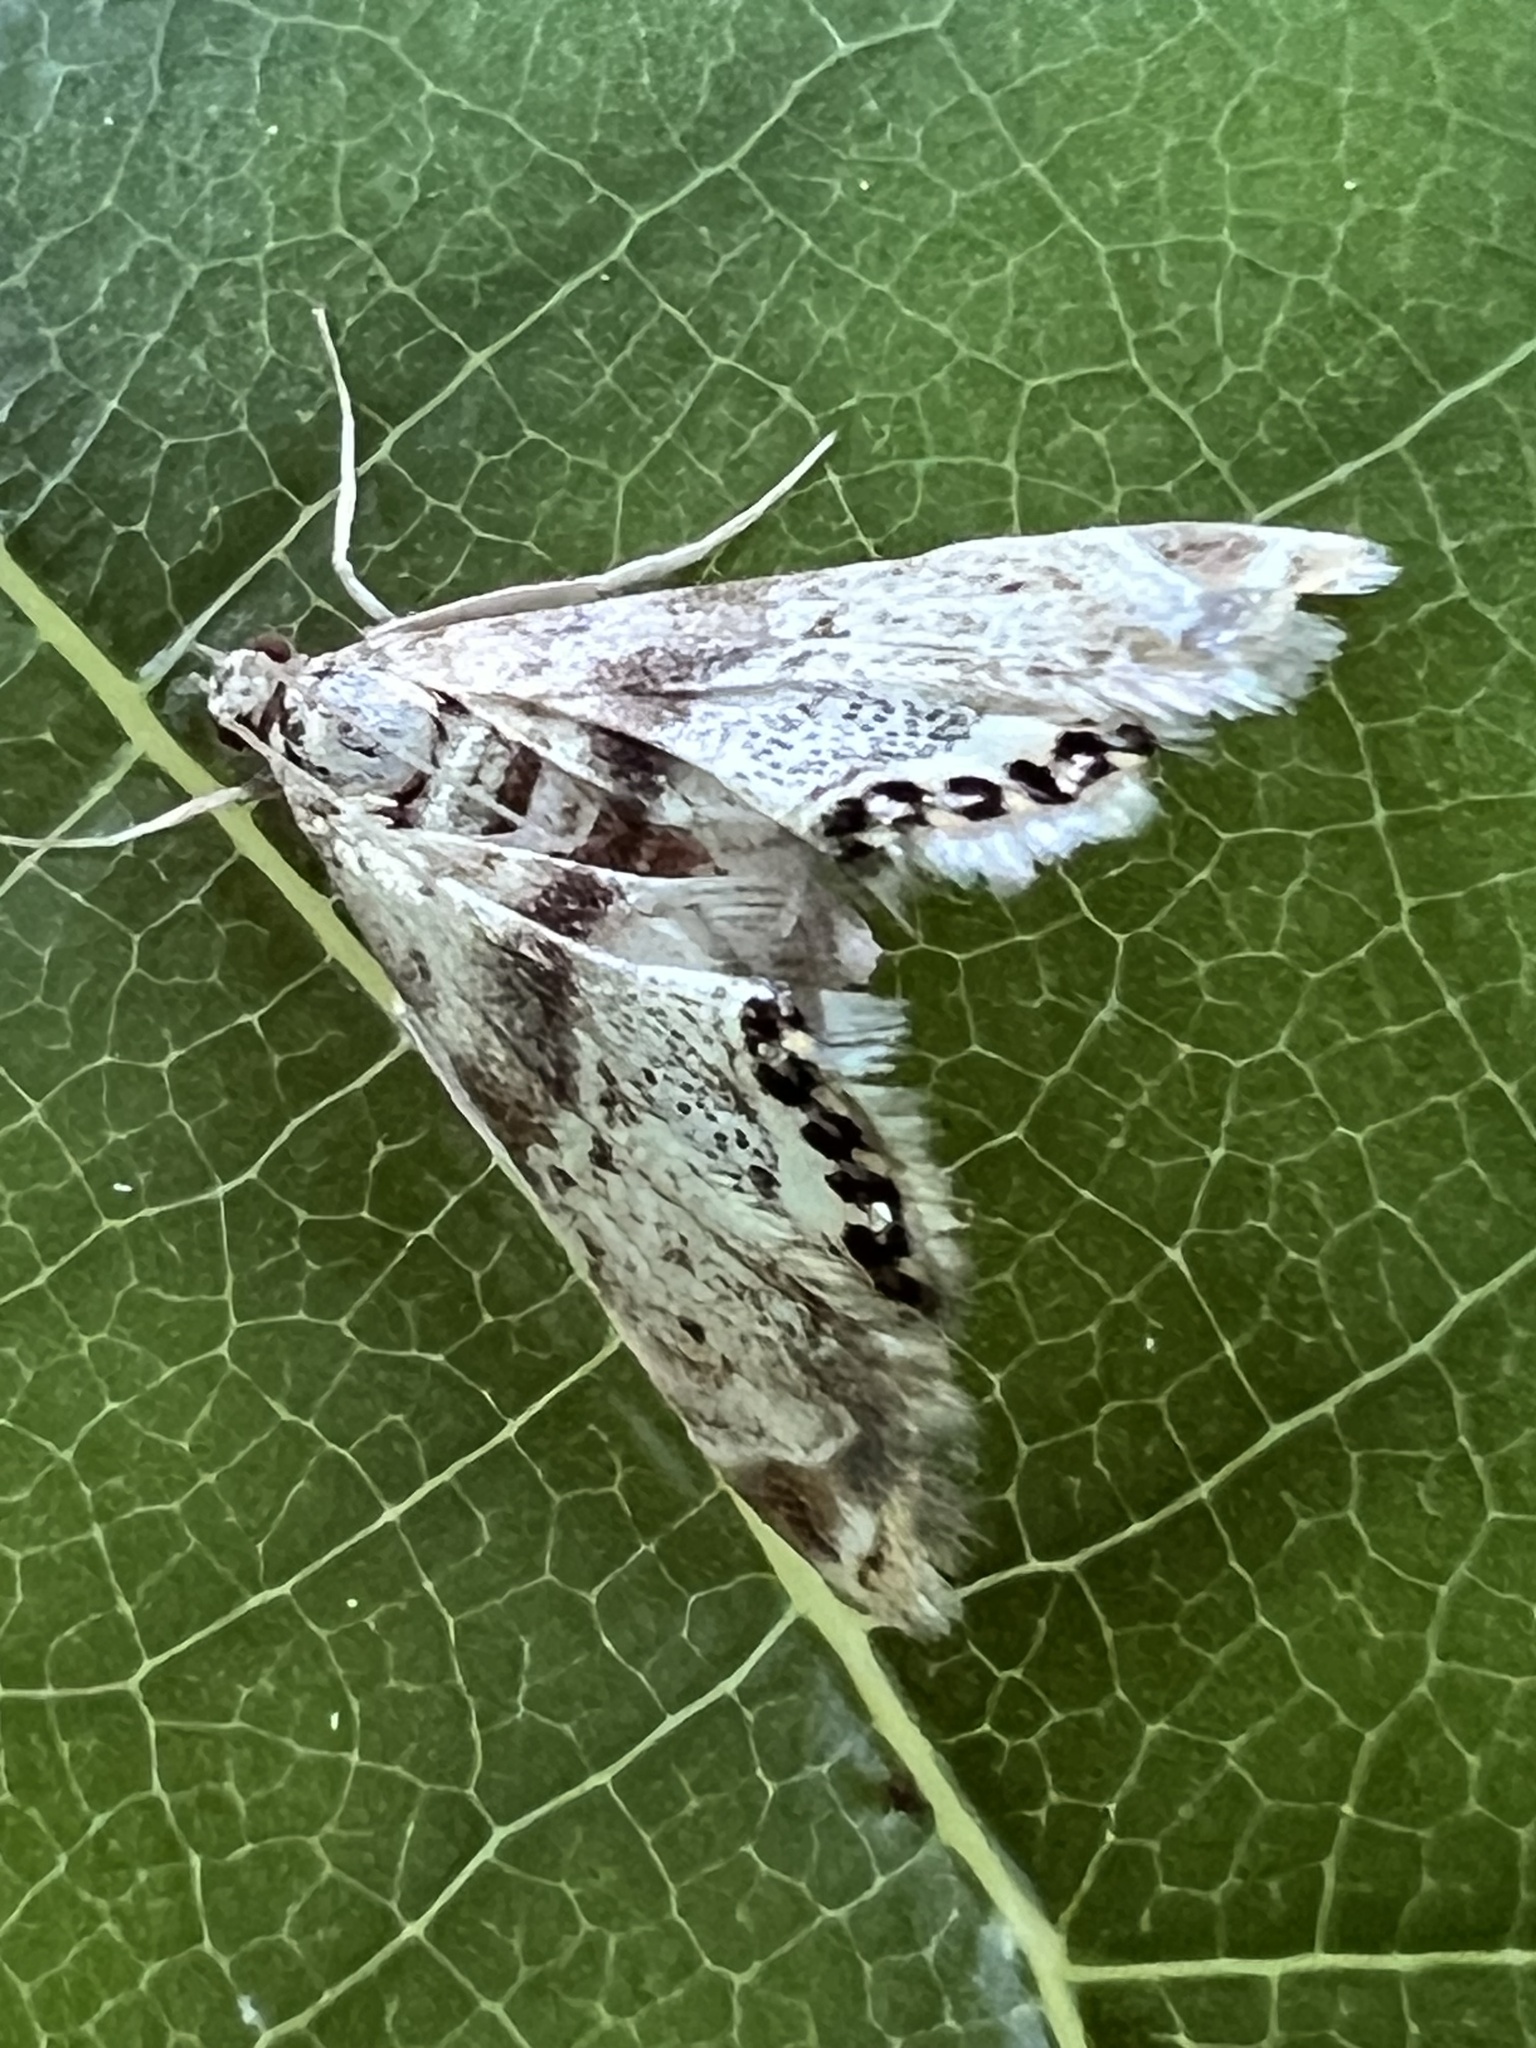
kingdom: Animalia
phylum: Arthropoda
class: Insecta
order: Lepidoptera
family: Crambidae
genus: Petrophila
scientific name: Petrophila fulicalis
